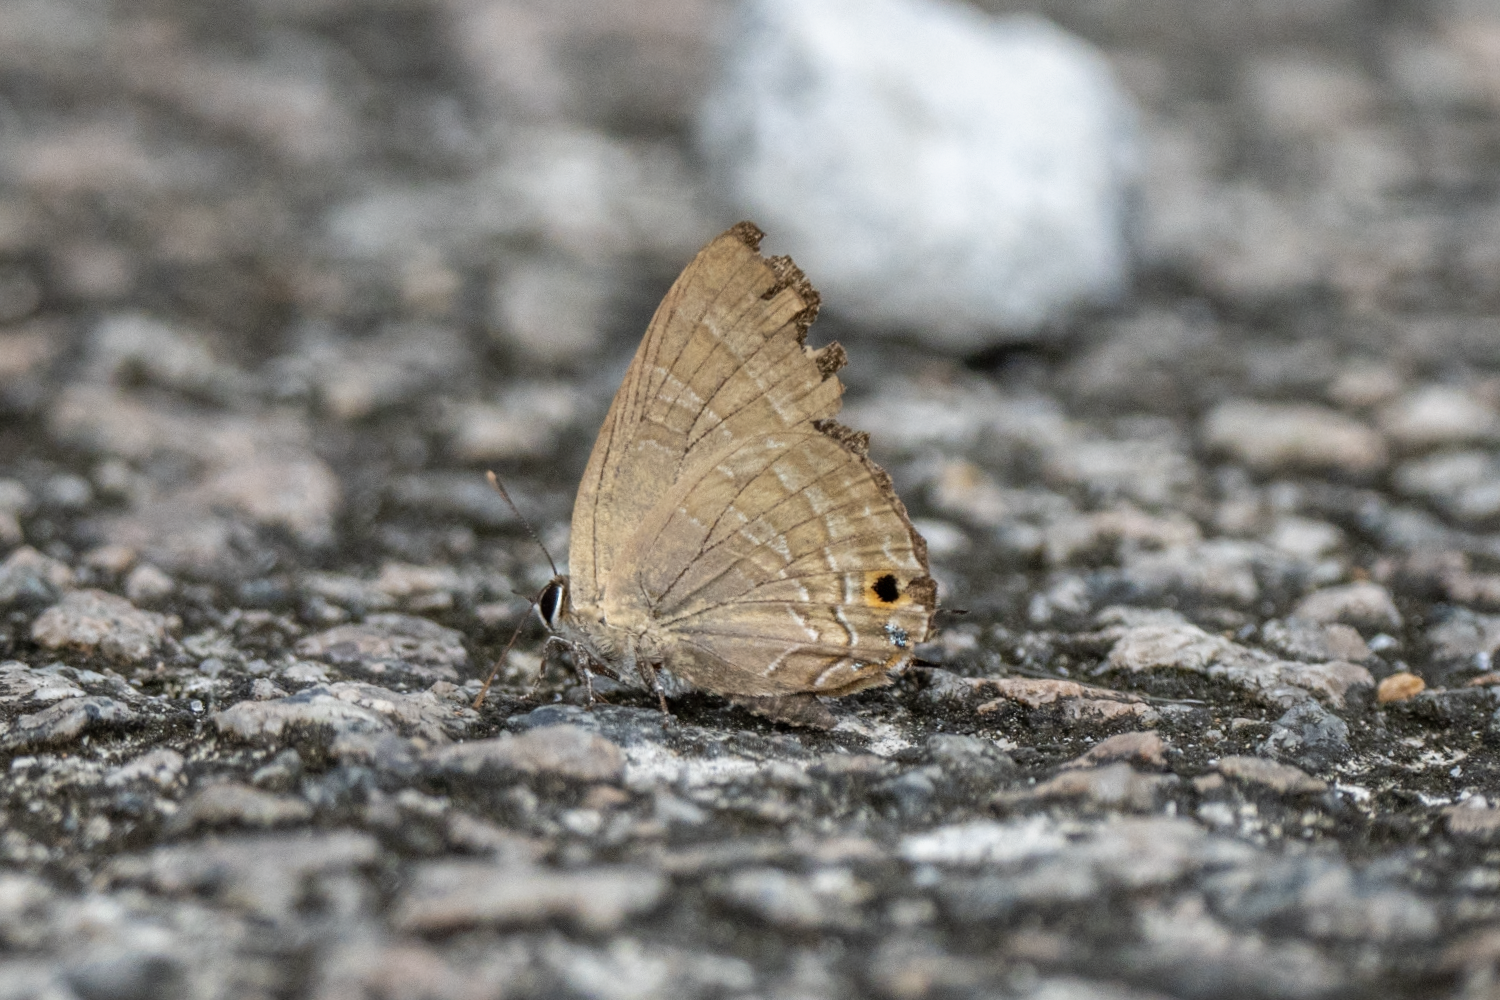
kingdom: Animalia
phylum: Arthropoda
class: Insecta
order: Lepidoptera
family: Lycaenidae
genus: Deudorix
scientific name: Deudorix epijarbas
